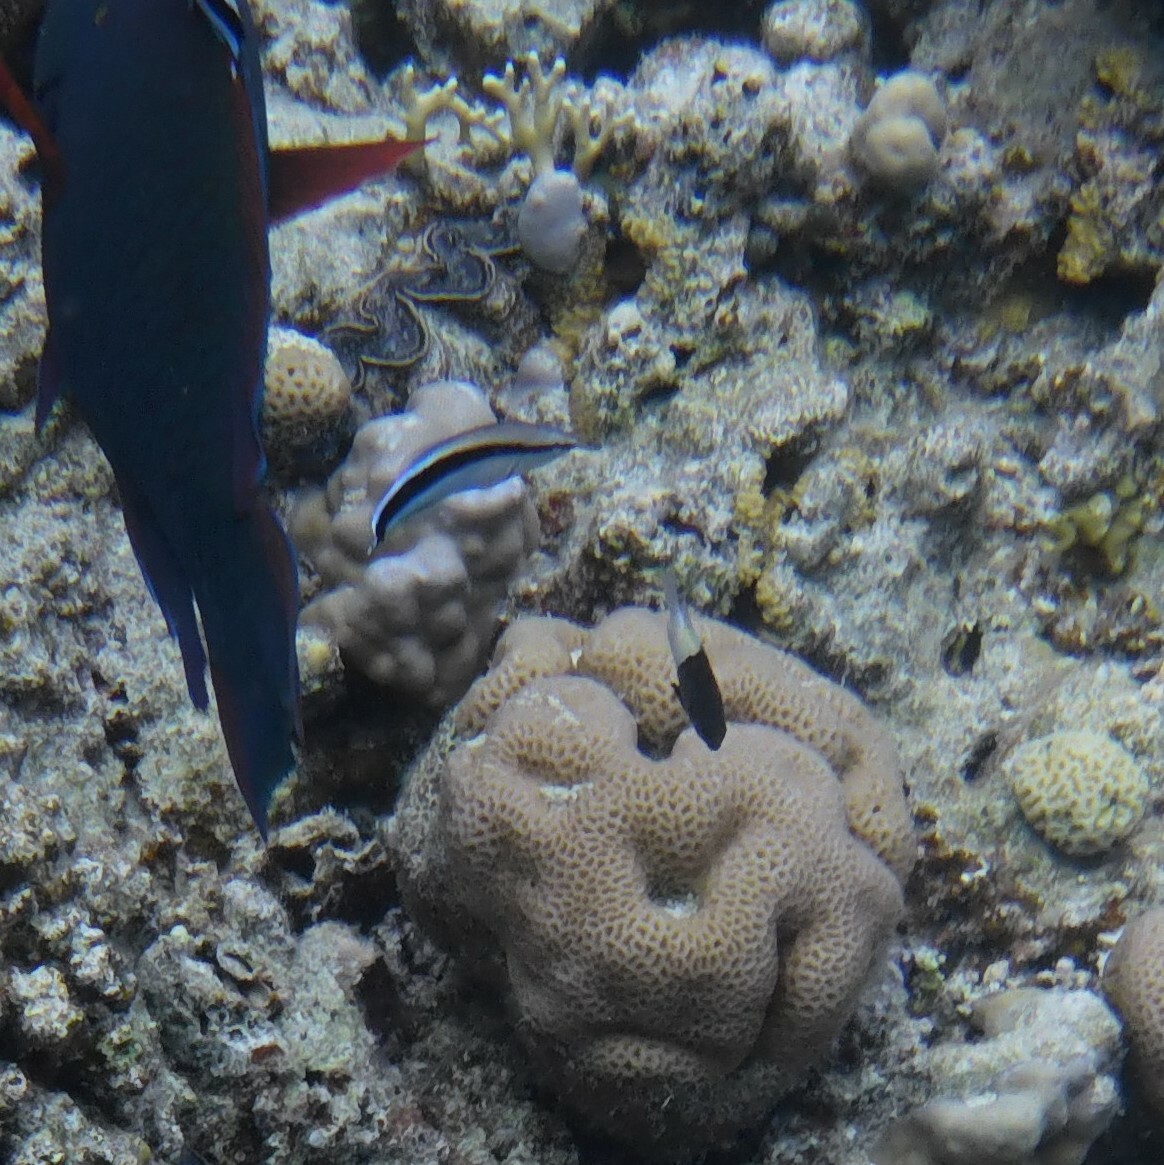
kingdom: Animalia
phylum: Chordata
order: Perciformes
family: Labridae
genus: Labroides
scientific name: Labroides dimidiatus
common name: Blue diesel wrasse
